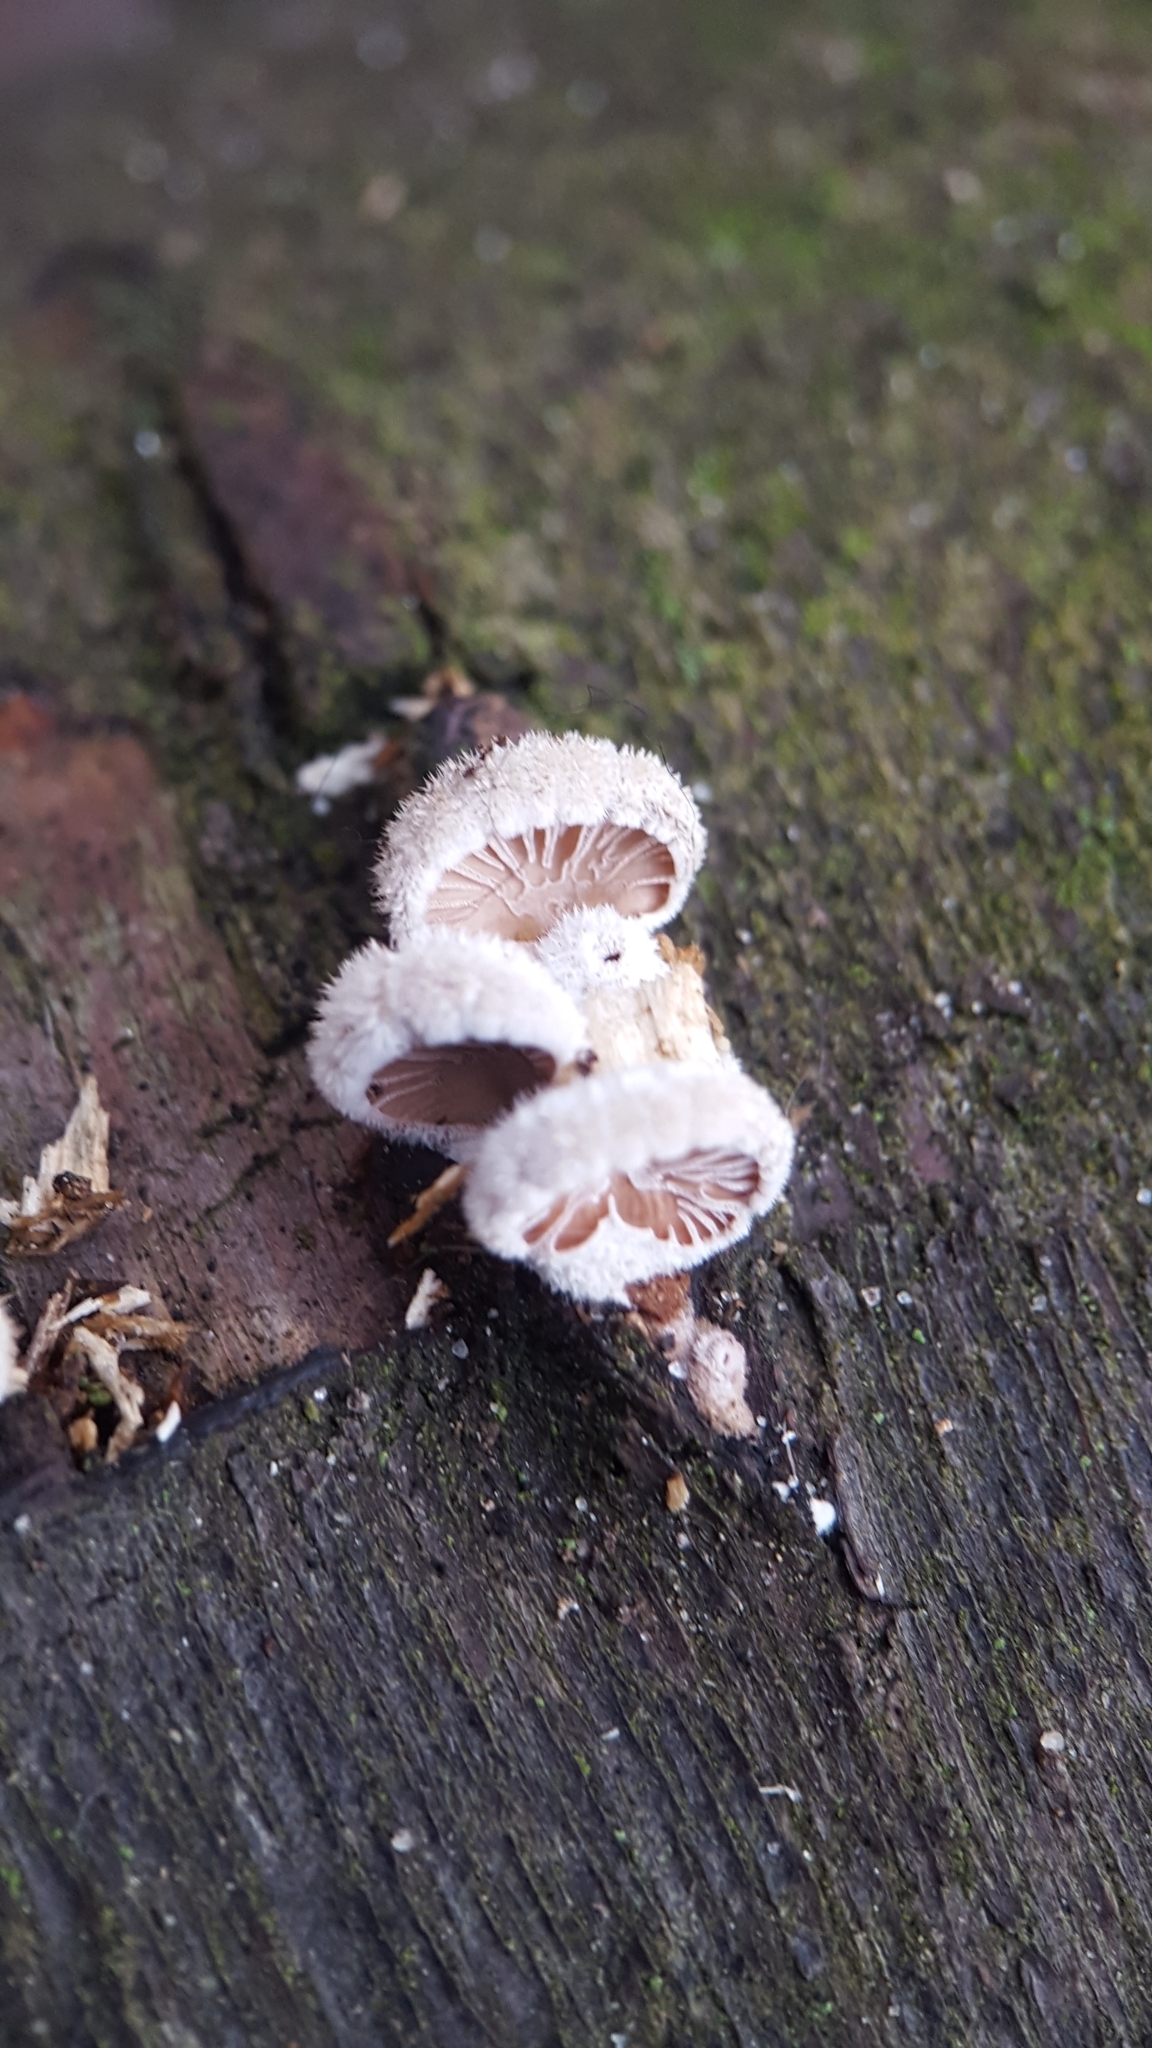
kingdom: Fungi
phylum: Basidiomycota
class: Agaricomycetes
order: Agaricales
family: Schizophyllaceae
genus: Schizophyllum
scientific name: Schizophyllum commune
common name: Common porecrust
